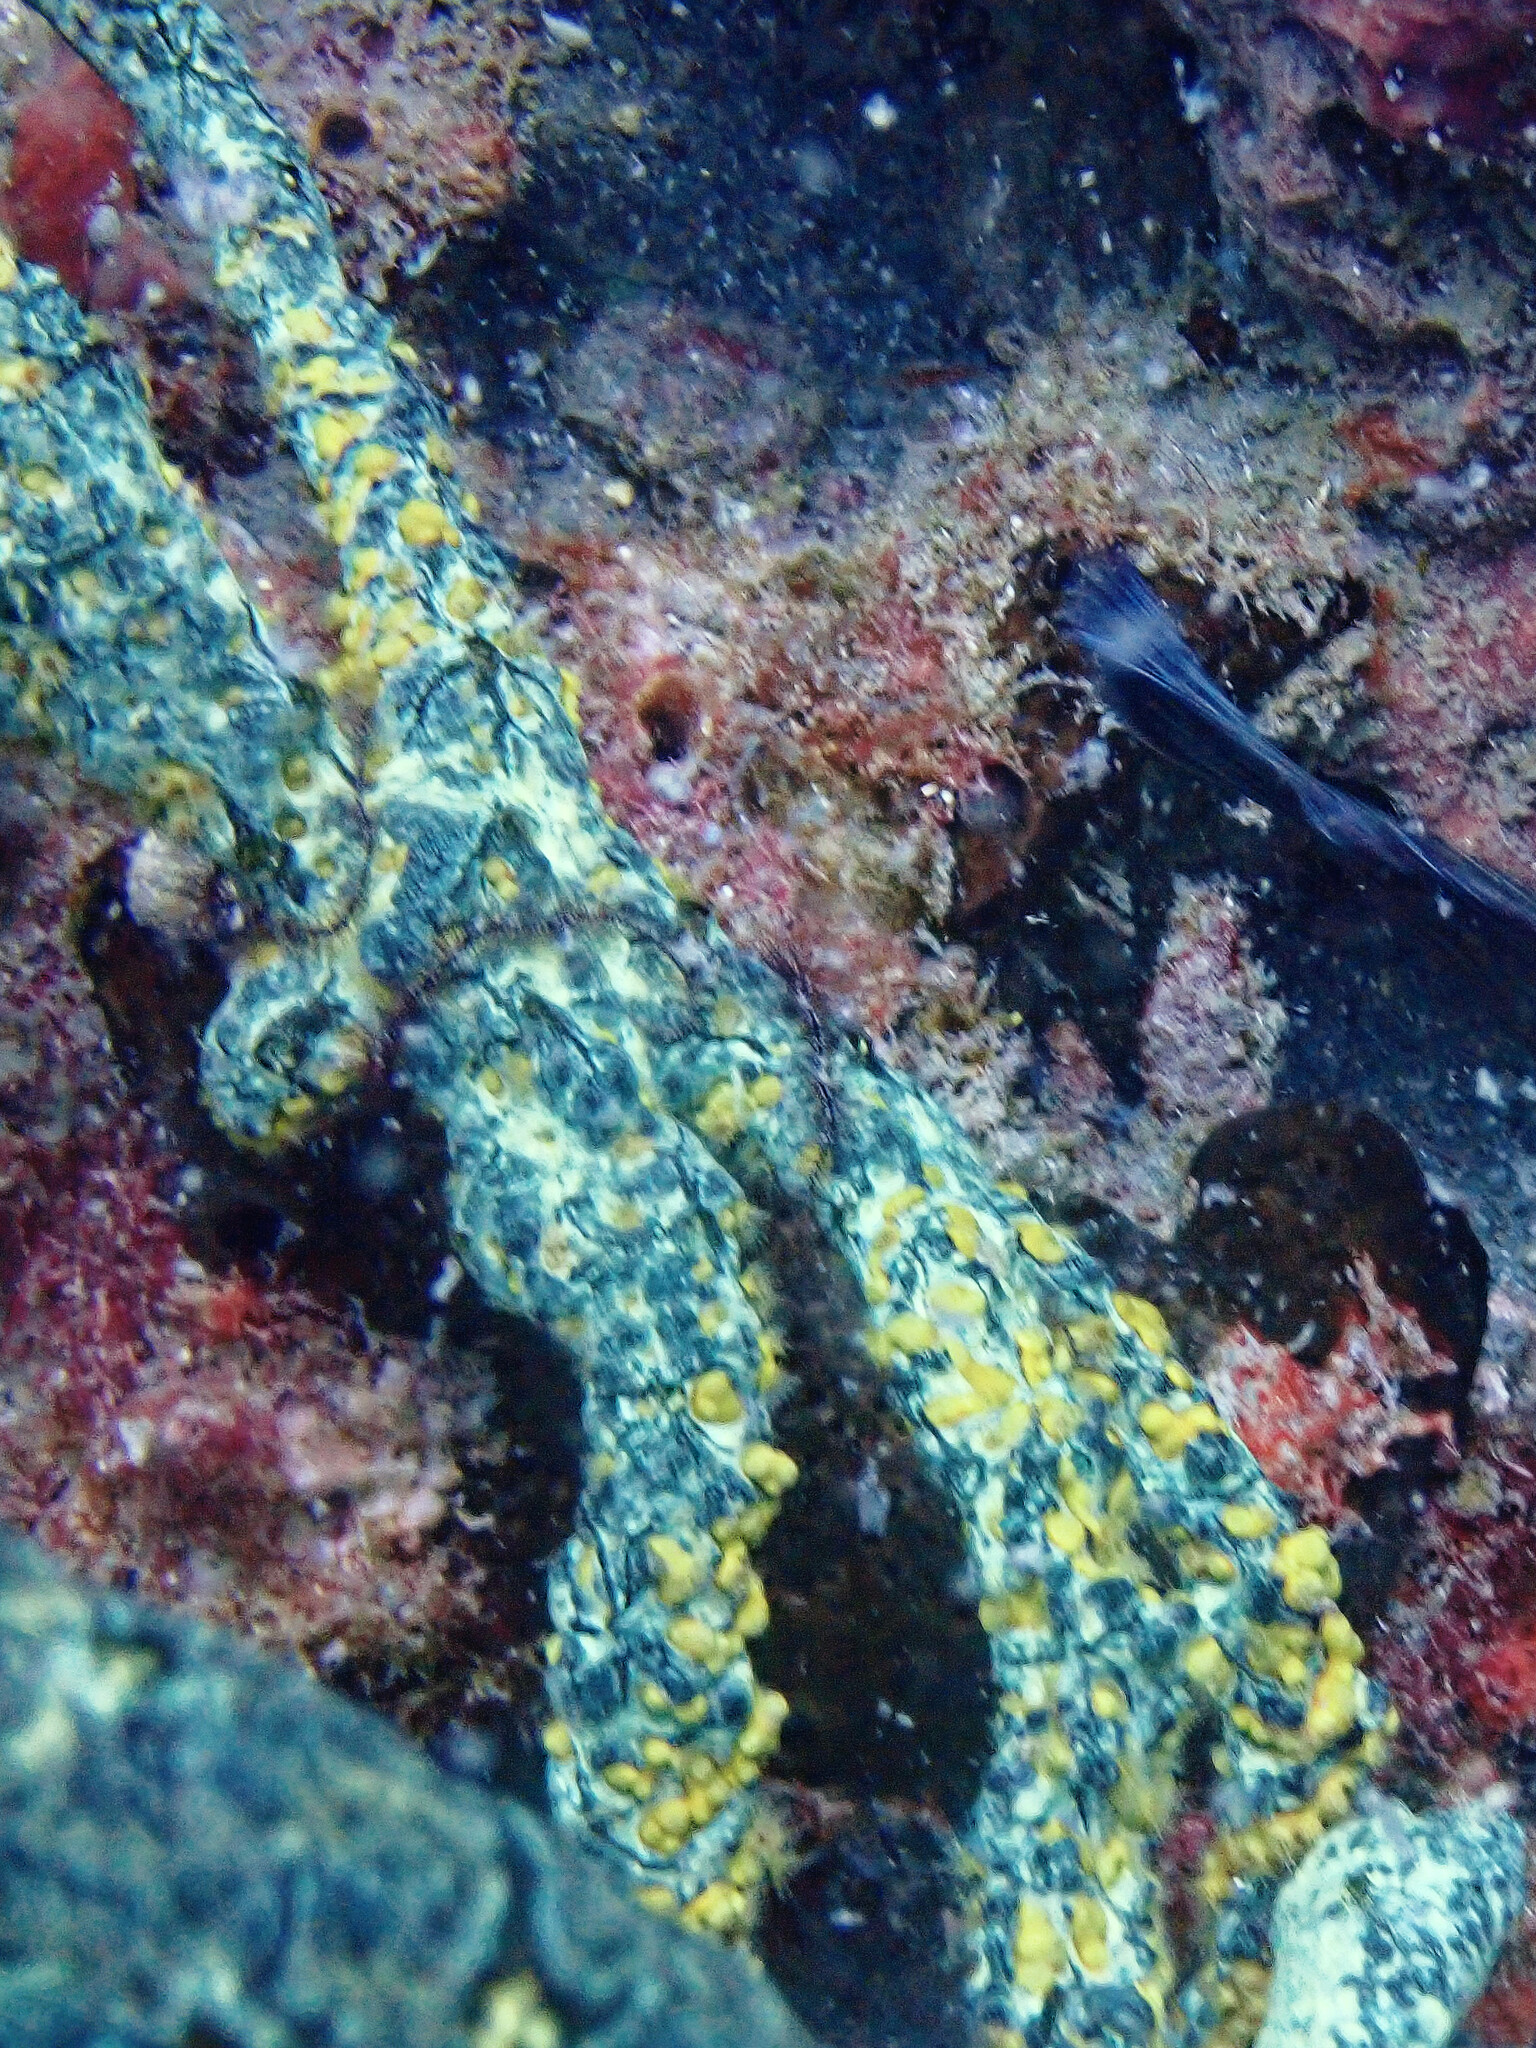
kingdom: Animalia
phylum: Cnidaria
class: Anthozoa
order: Zoantharia
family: Parazoanthidae
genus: Parazoanthus
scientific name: Parazoanthus swiftii
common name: Golden zoanthid
